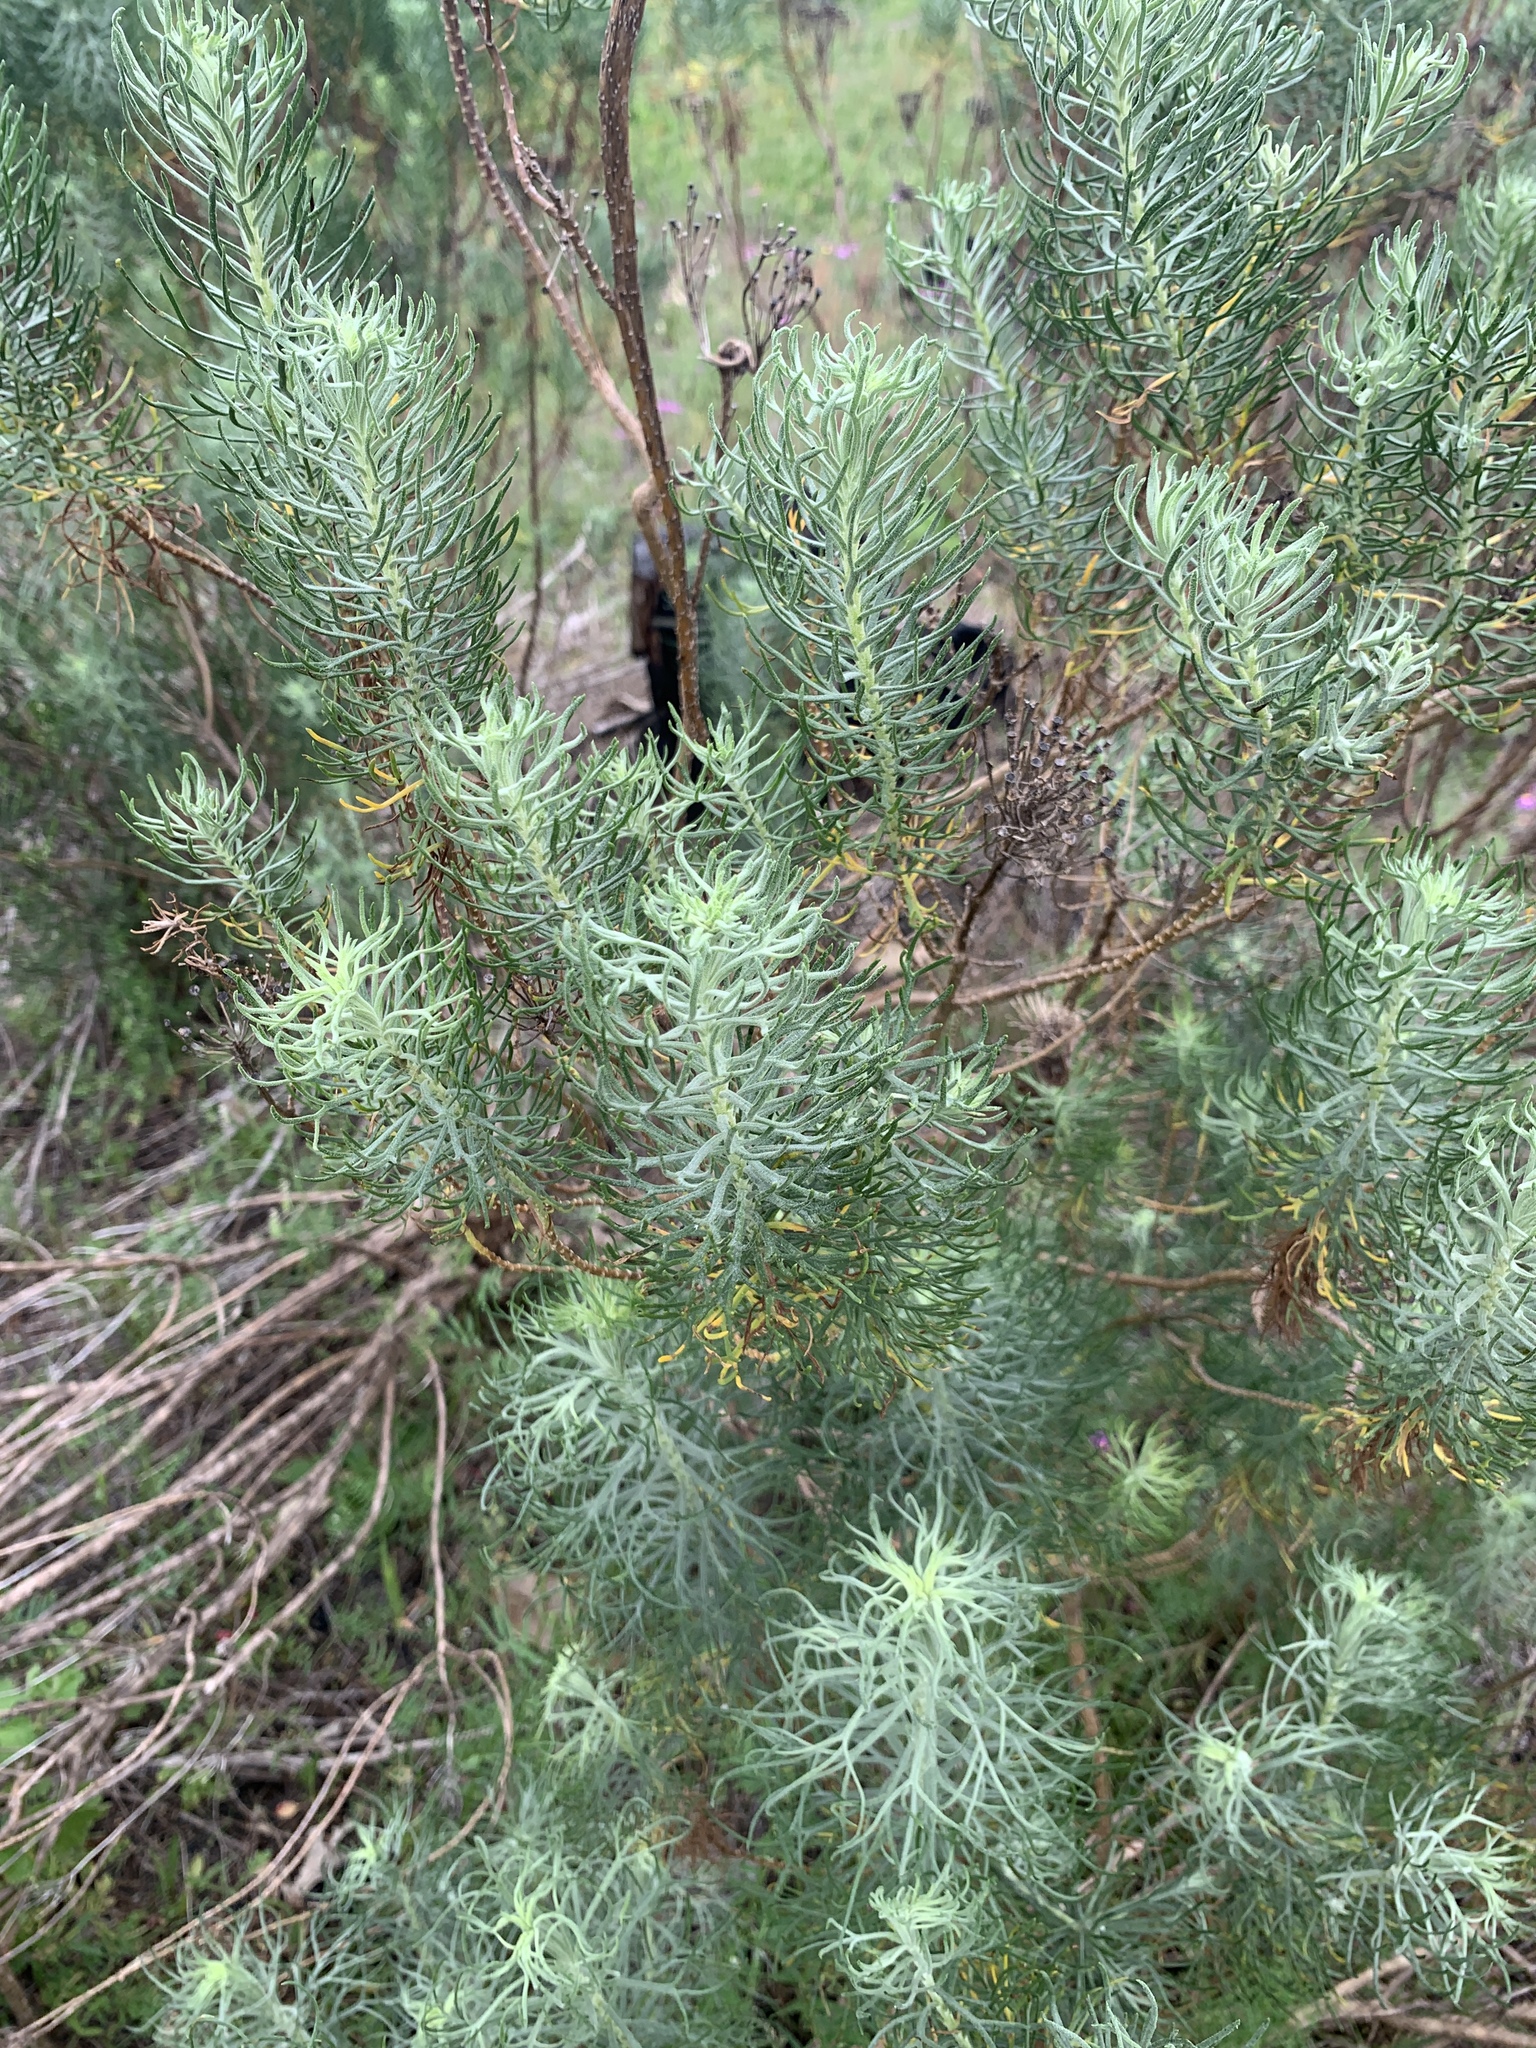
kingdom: Plantae
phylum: Tracheophyta
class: Magnoliopsida
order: Asterales
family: Asteraceae
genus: Athanasia
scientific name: Athanasia crithmifolia
